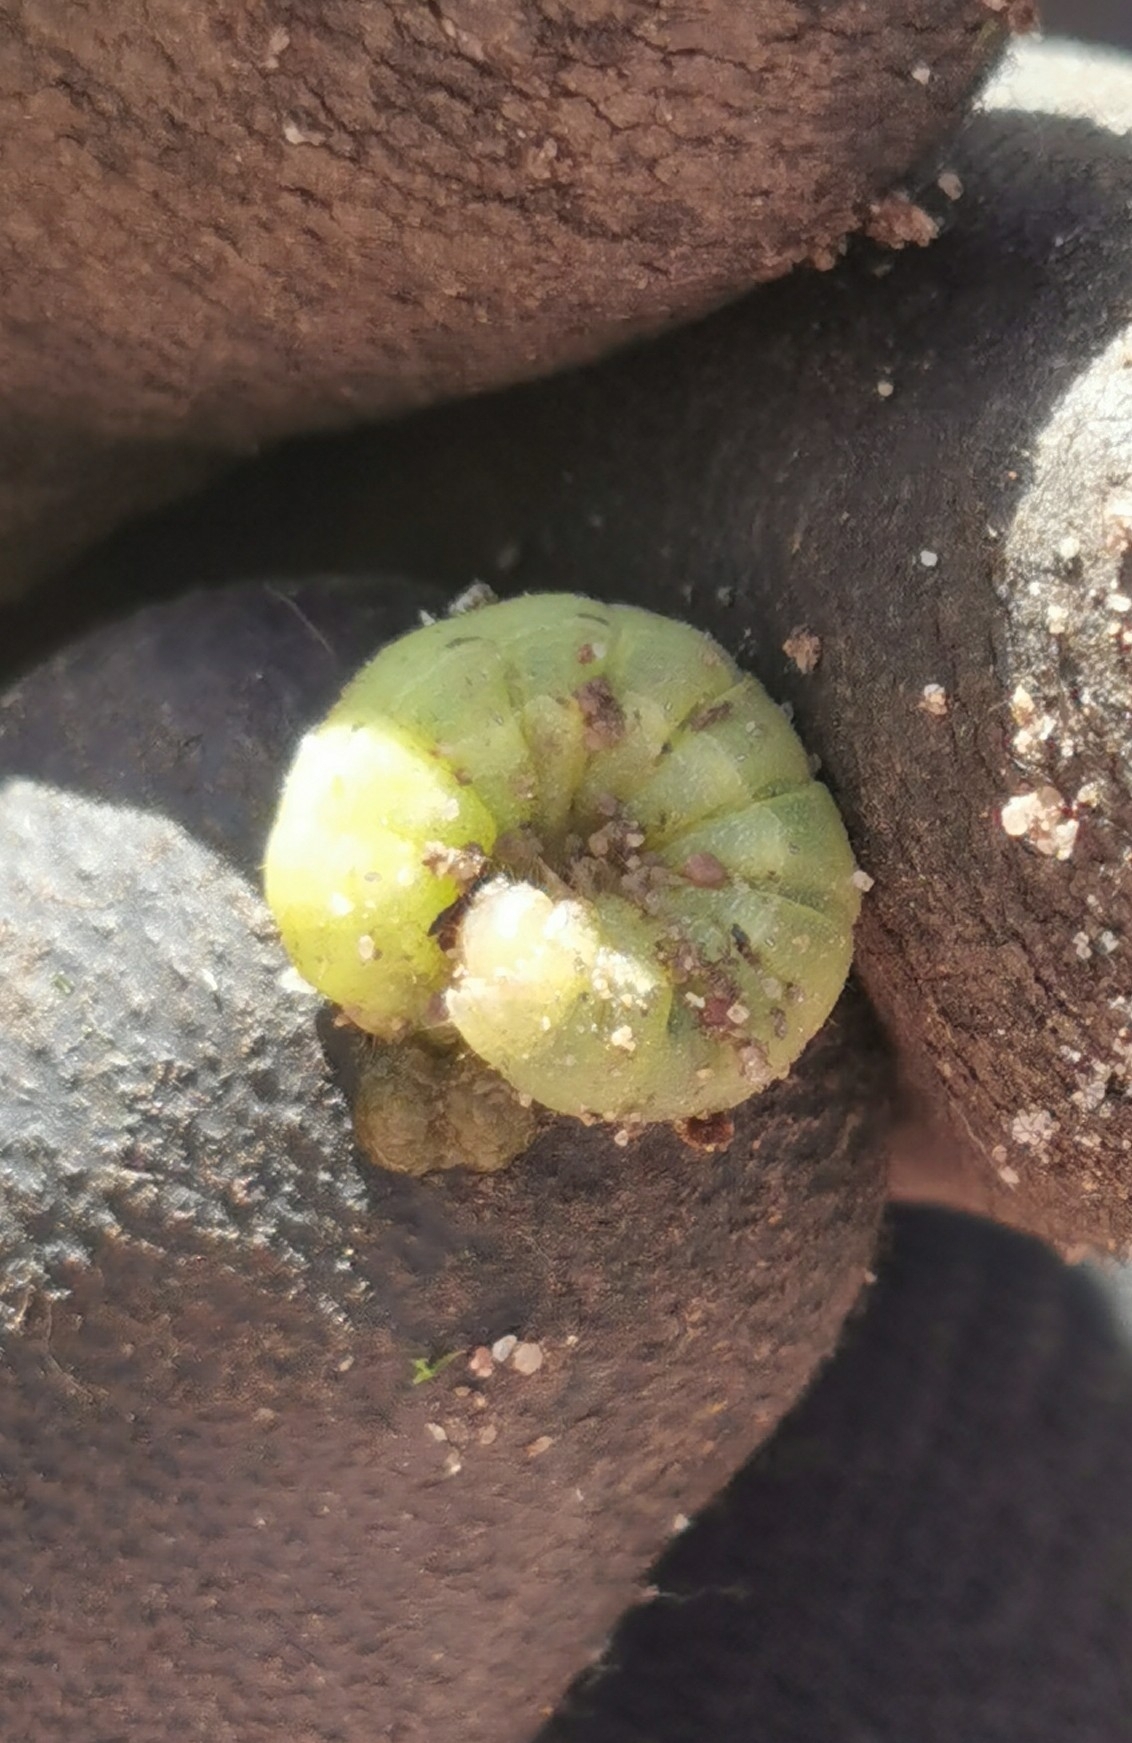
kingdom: Animalia
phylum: Arthropoda
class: Insecta
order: Lepidoptera
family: Noctuidae
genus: Noctua
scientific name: Noctua pronuba
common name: Large yellow underwing
